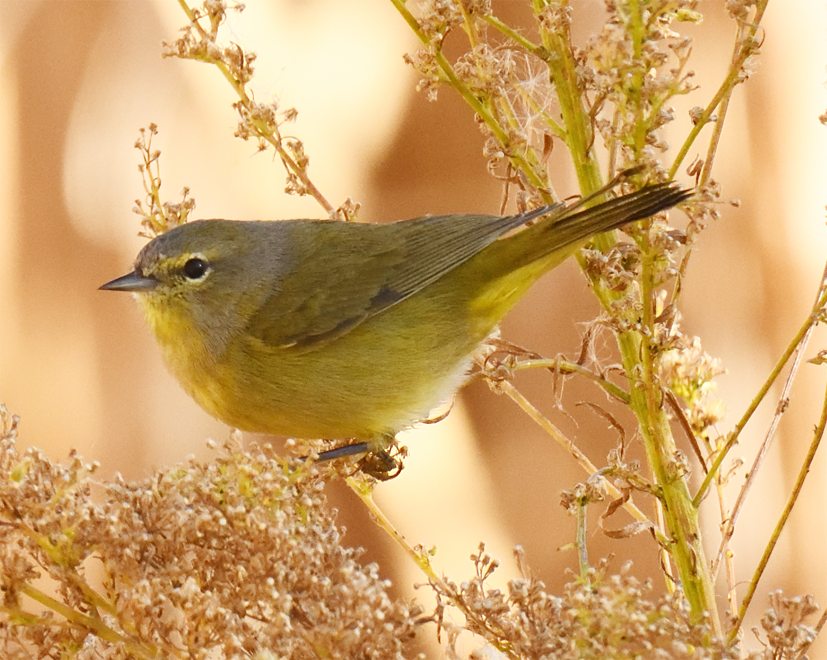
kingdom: Animalia
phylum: Chordata
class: Aves
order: Passeriformes
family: Parulidae
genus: Leiothlypis
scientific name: Leiothlypis celata
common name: Orange-crowned warbler
